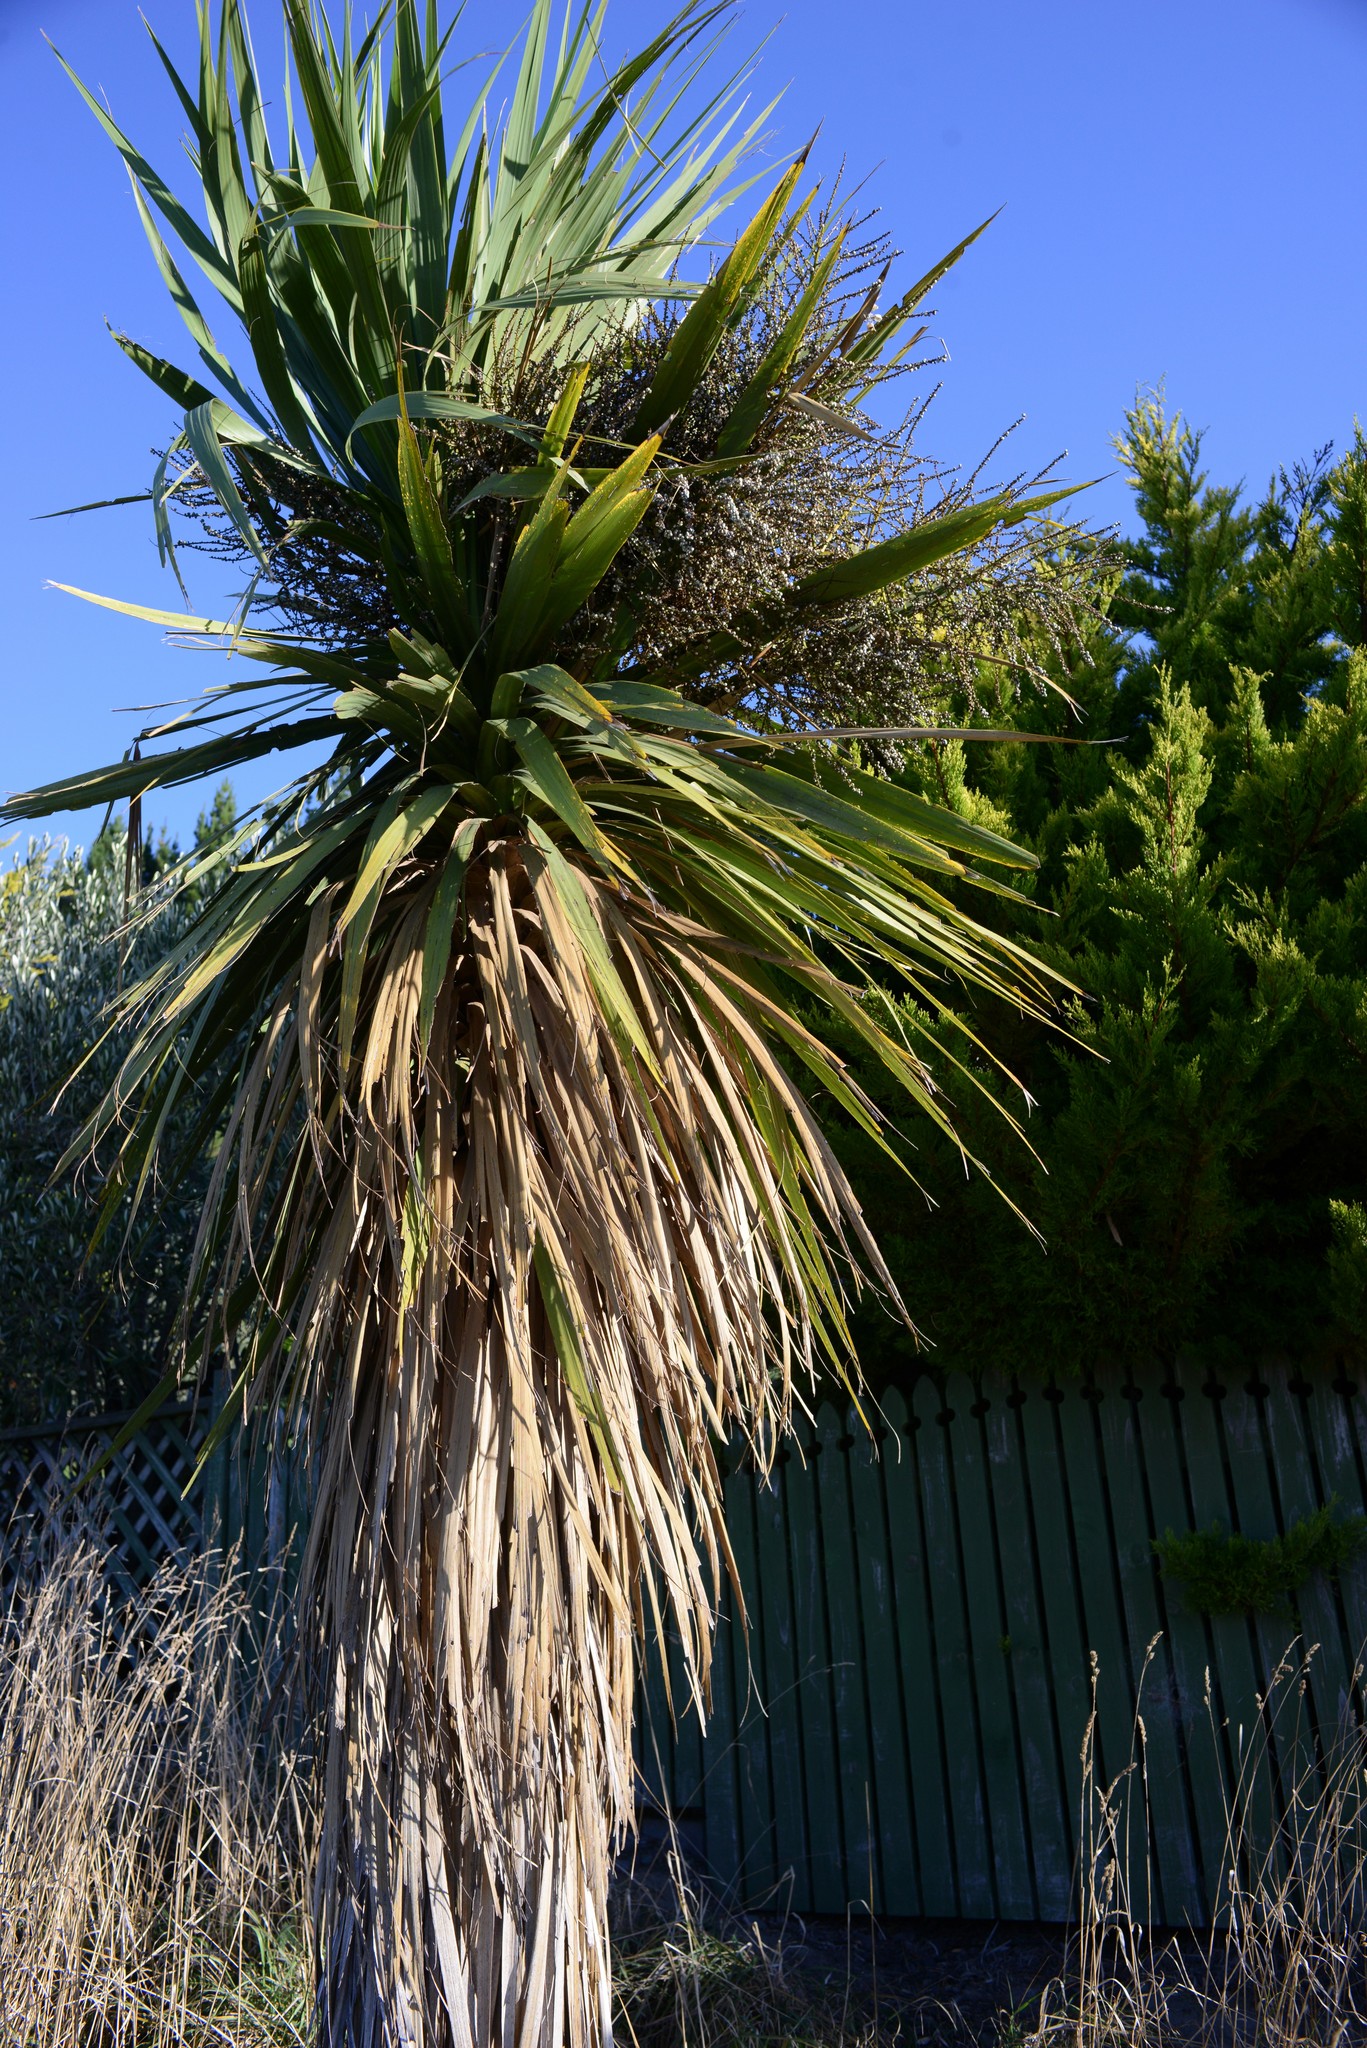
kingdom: Plantae
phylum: Tracheophyta
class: Liliopsida
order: Asparagales
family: Asparagaceae
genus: Cordyline
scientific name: Cordyline australis
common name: Cabbage-palm
